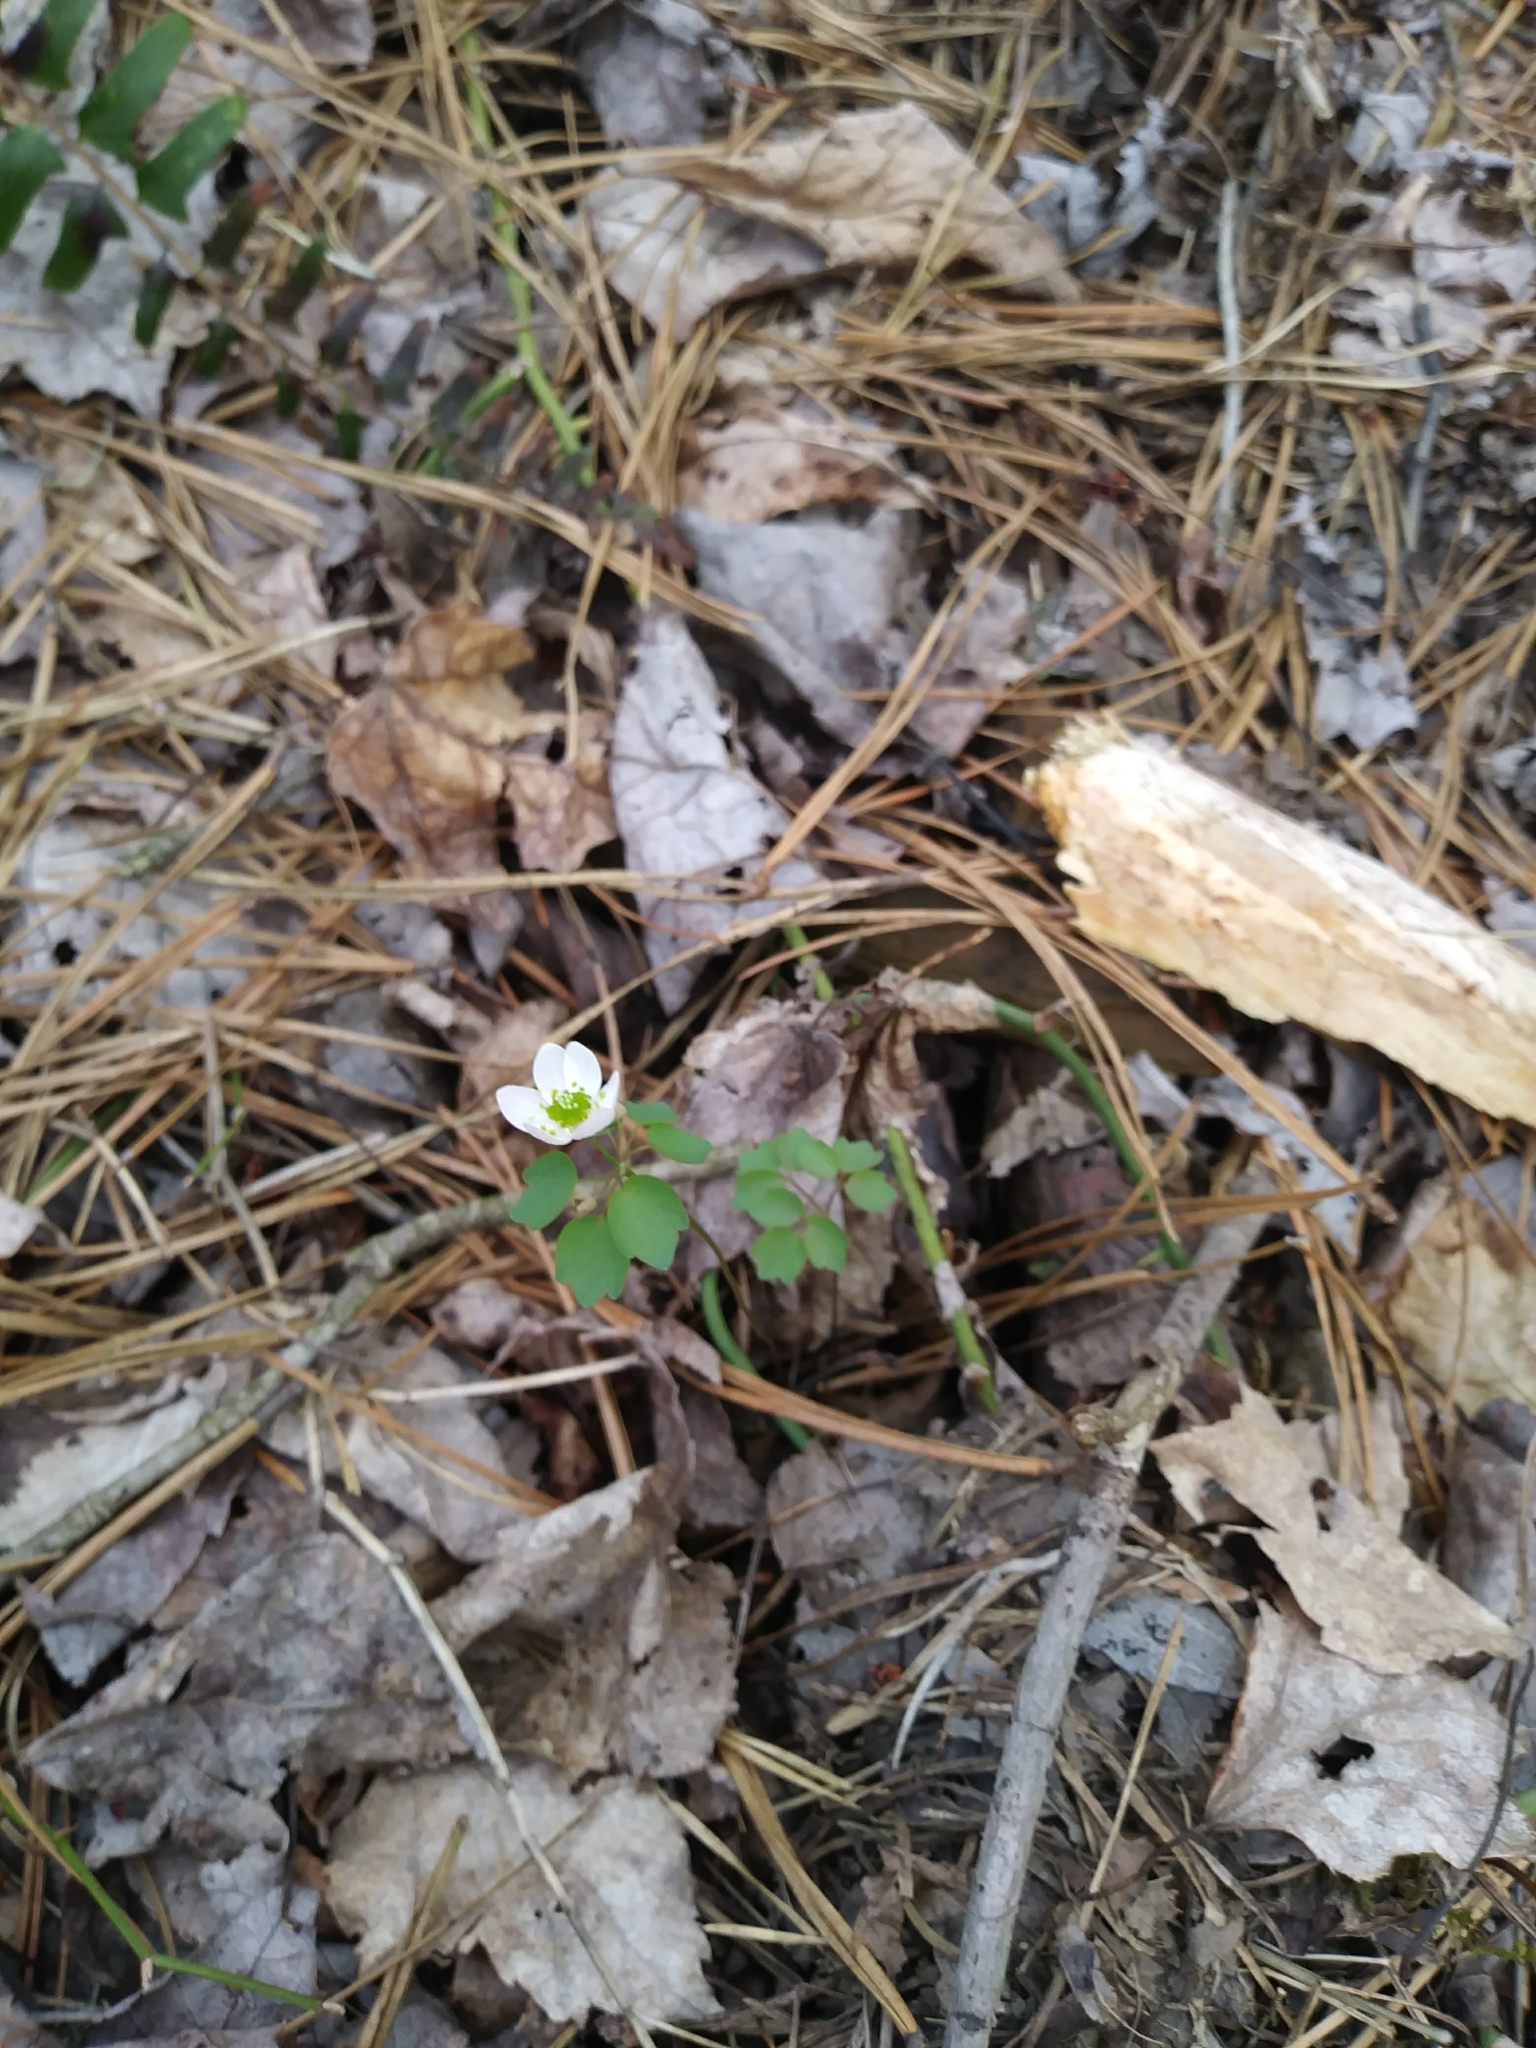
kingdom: Plantae
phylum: Tracheophyta
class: Magnoliopsida
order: Ranunculales
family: Ranunculaceae
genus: Thalictrum
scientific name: Thalictrum thalictroides
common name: Rue-anemone
